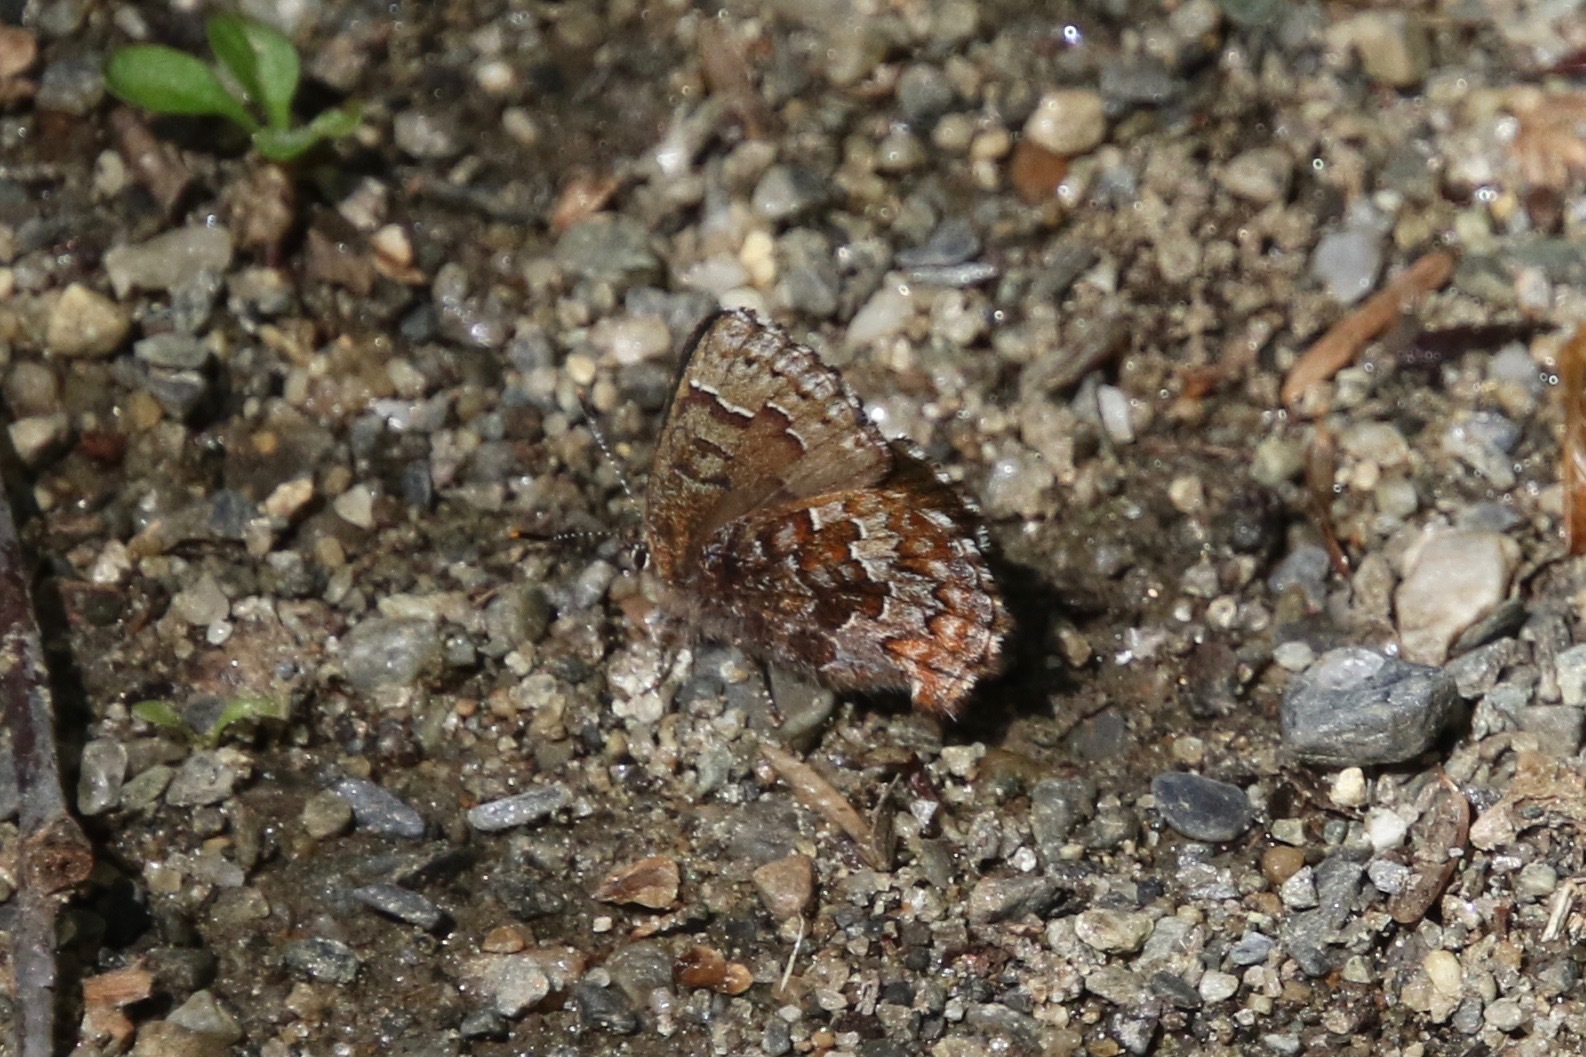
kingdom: Animalia
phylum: Arthropoda
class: Insecta
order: Lepidoptera
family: Lycaenidae
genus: Incisalia
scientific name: Incisalia niphon
